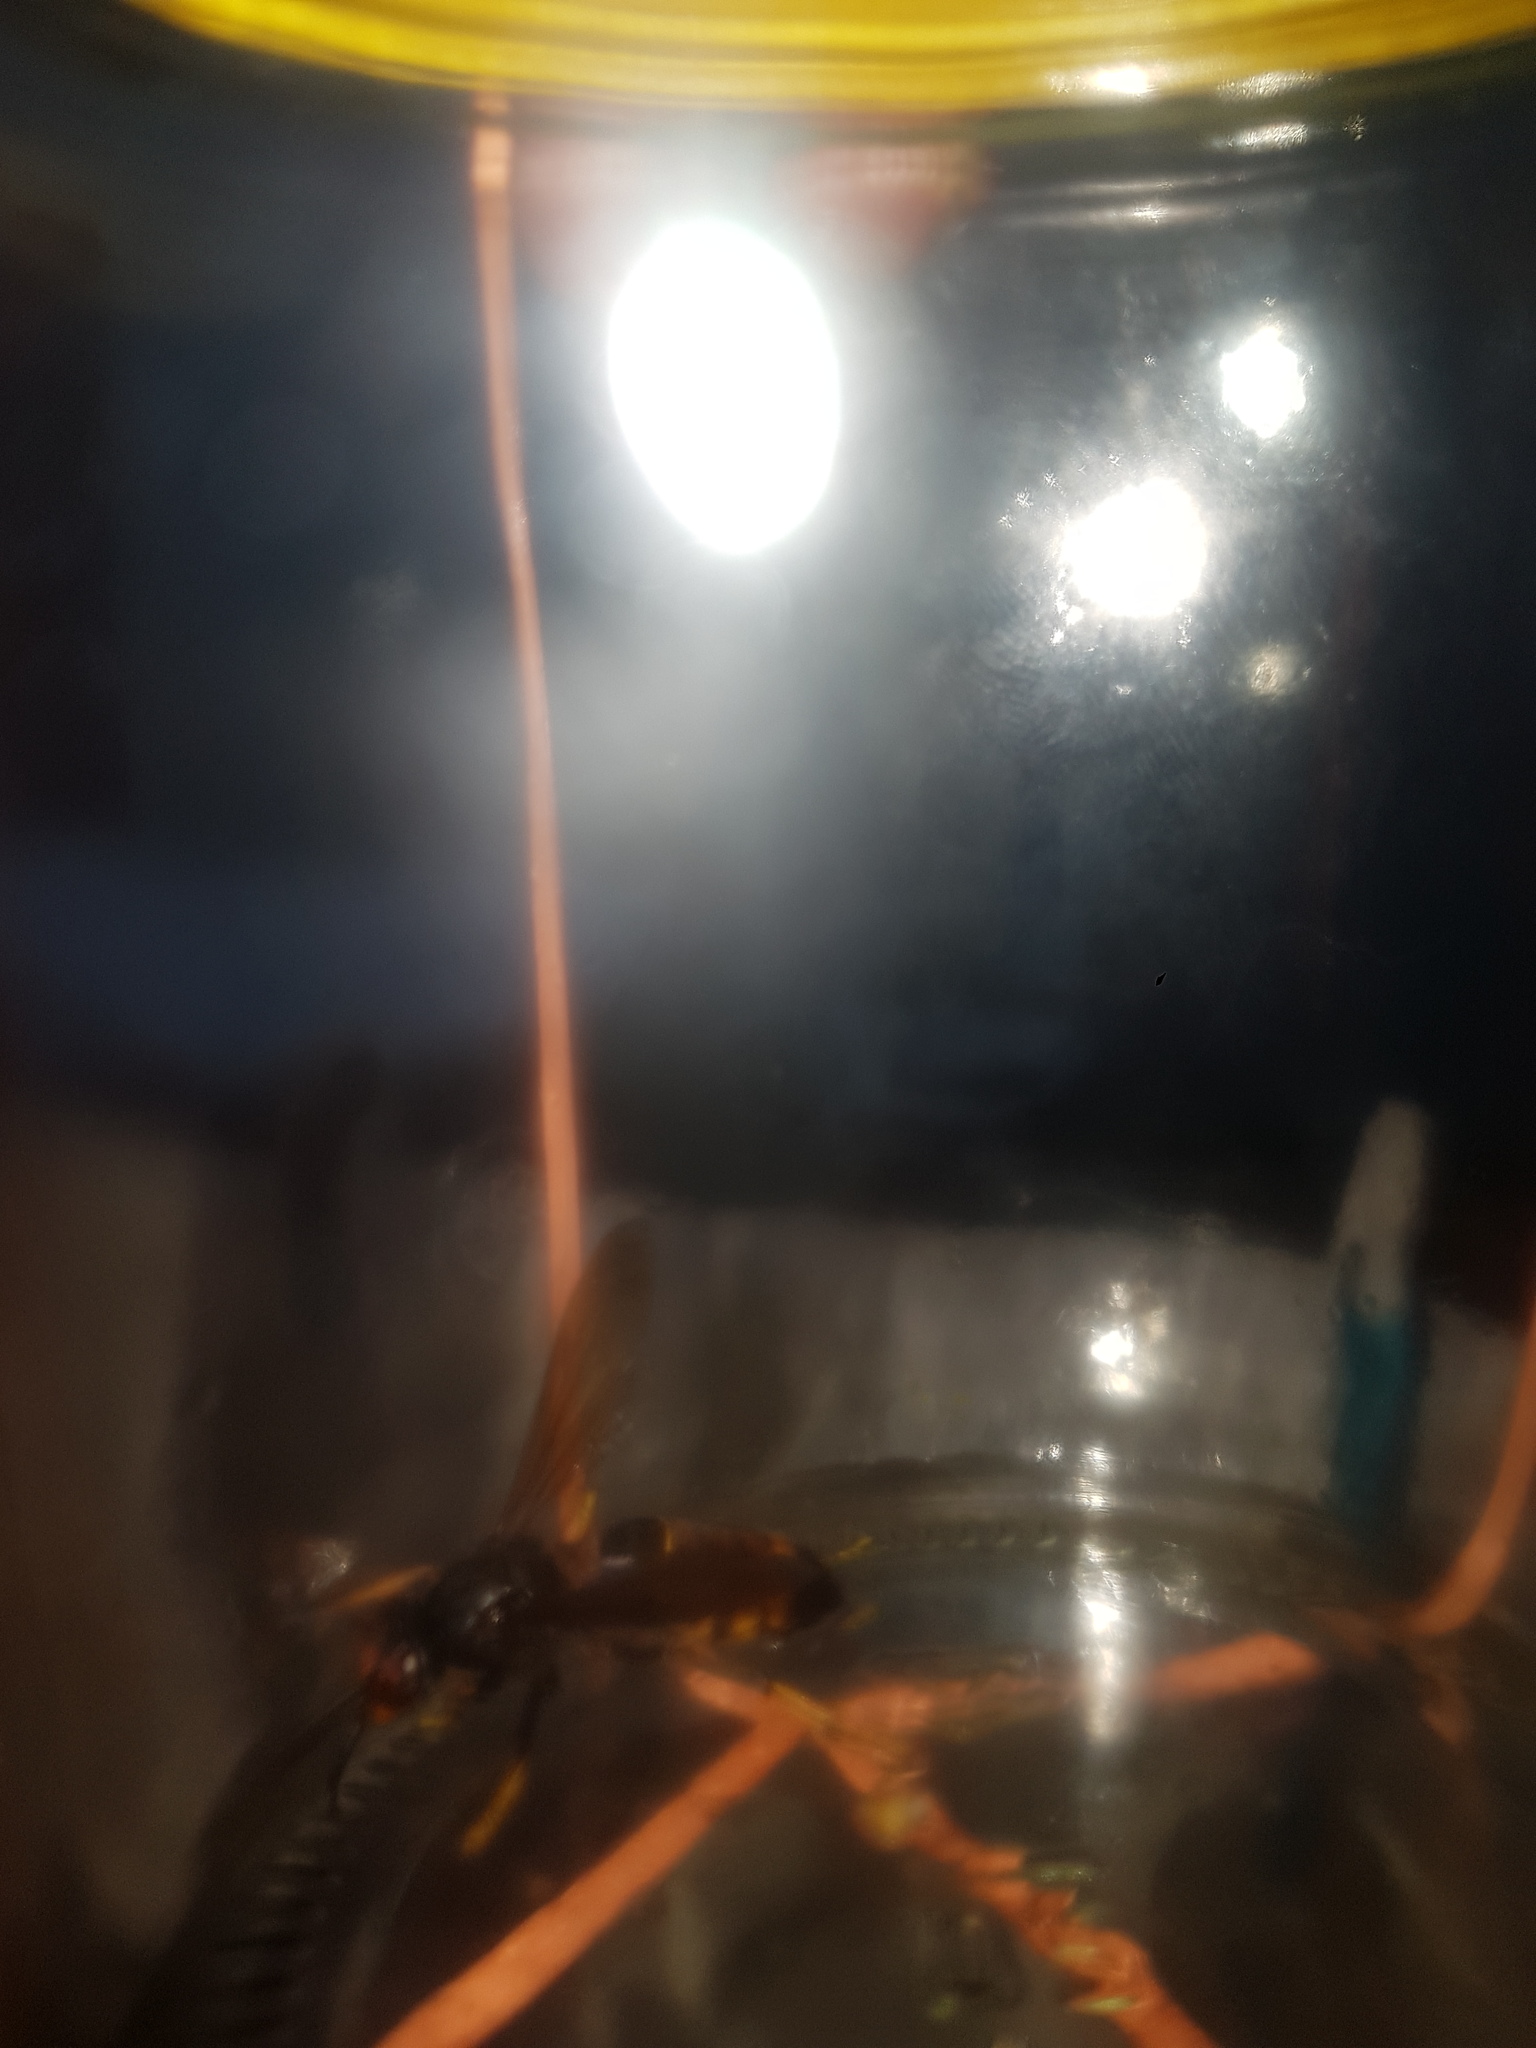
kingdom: Animalia
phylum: Arthropoda
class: Insecta
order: Hymenoptera
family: Vespidae
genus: Vespa
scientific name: Vespa velutina
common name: Asian hornet
